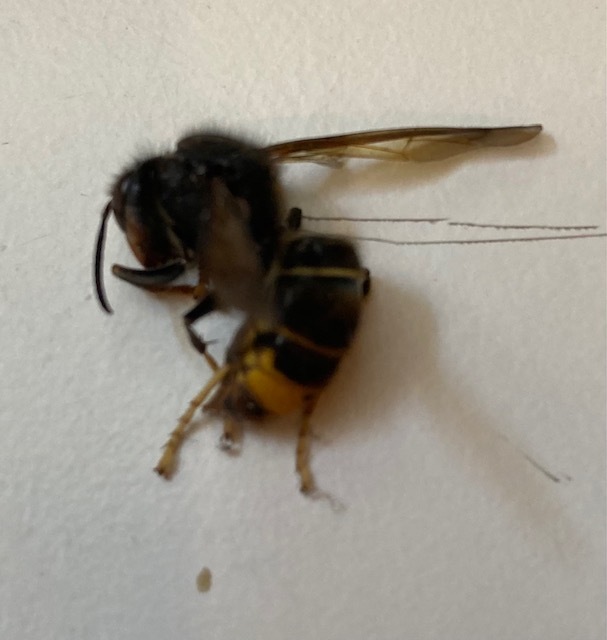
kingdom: Animalia
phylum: Arthropoda
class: Insecta
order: Hymenoptera
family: Vespidae
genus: Vespa
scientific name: Vespa velutina
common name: Asian hornet
